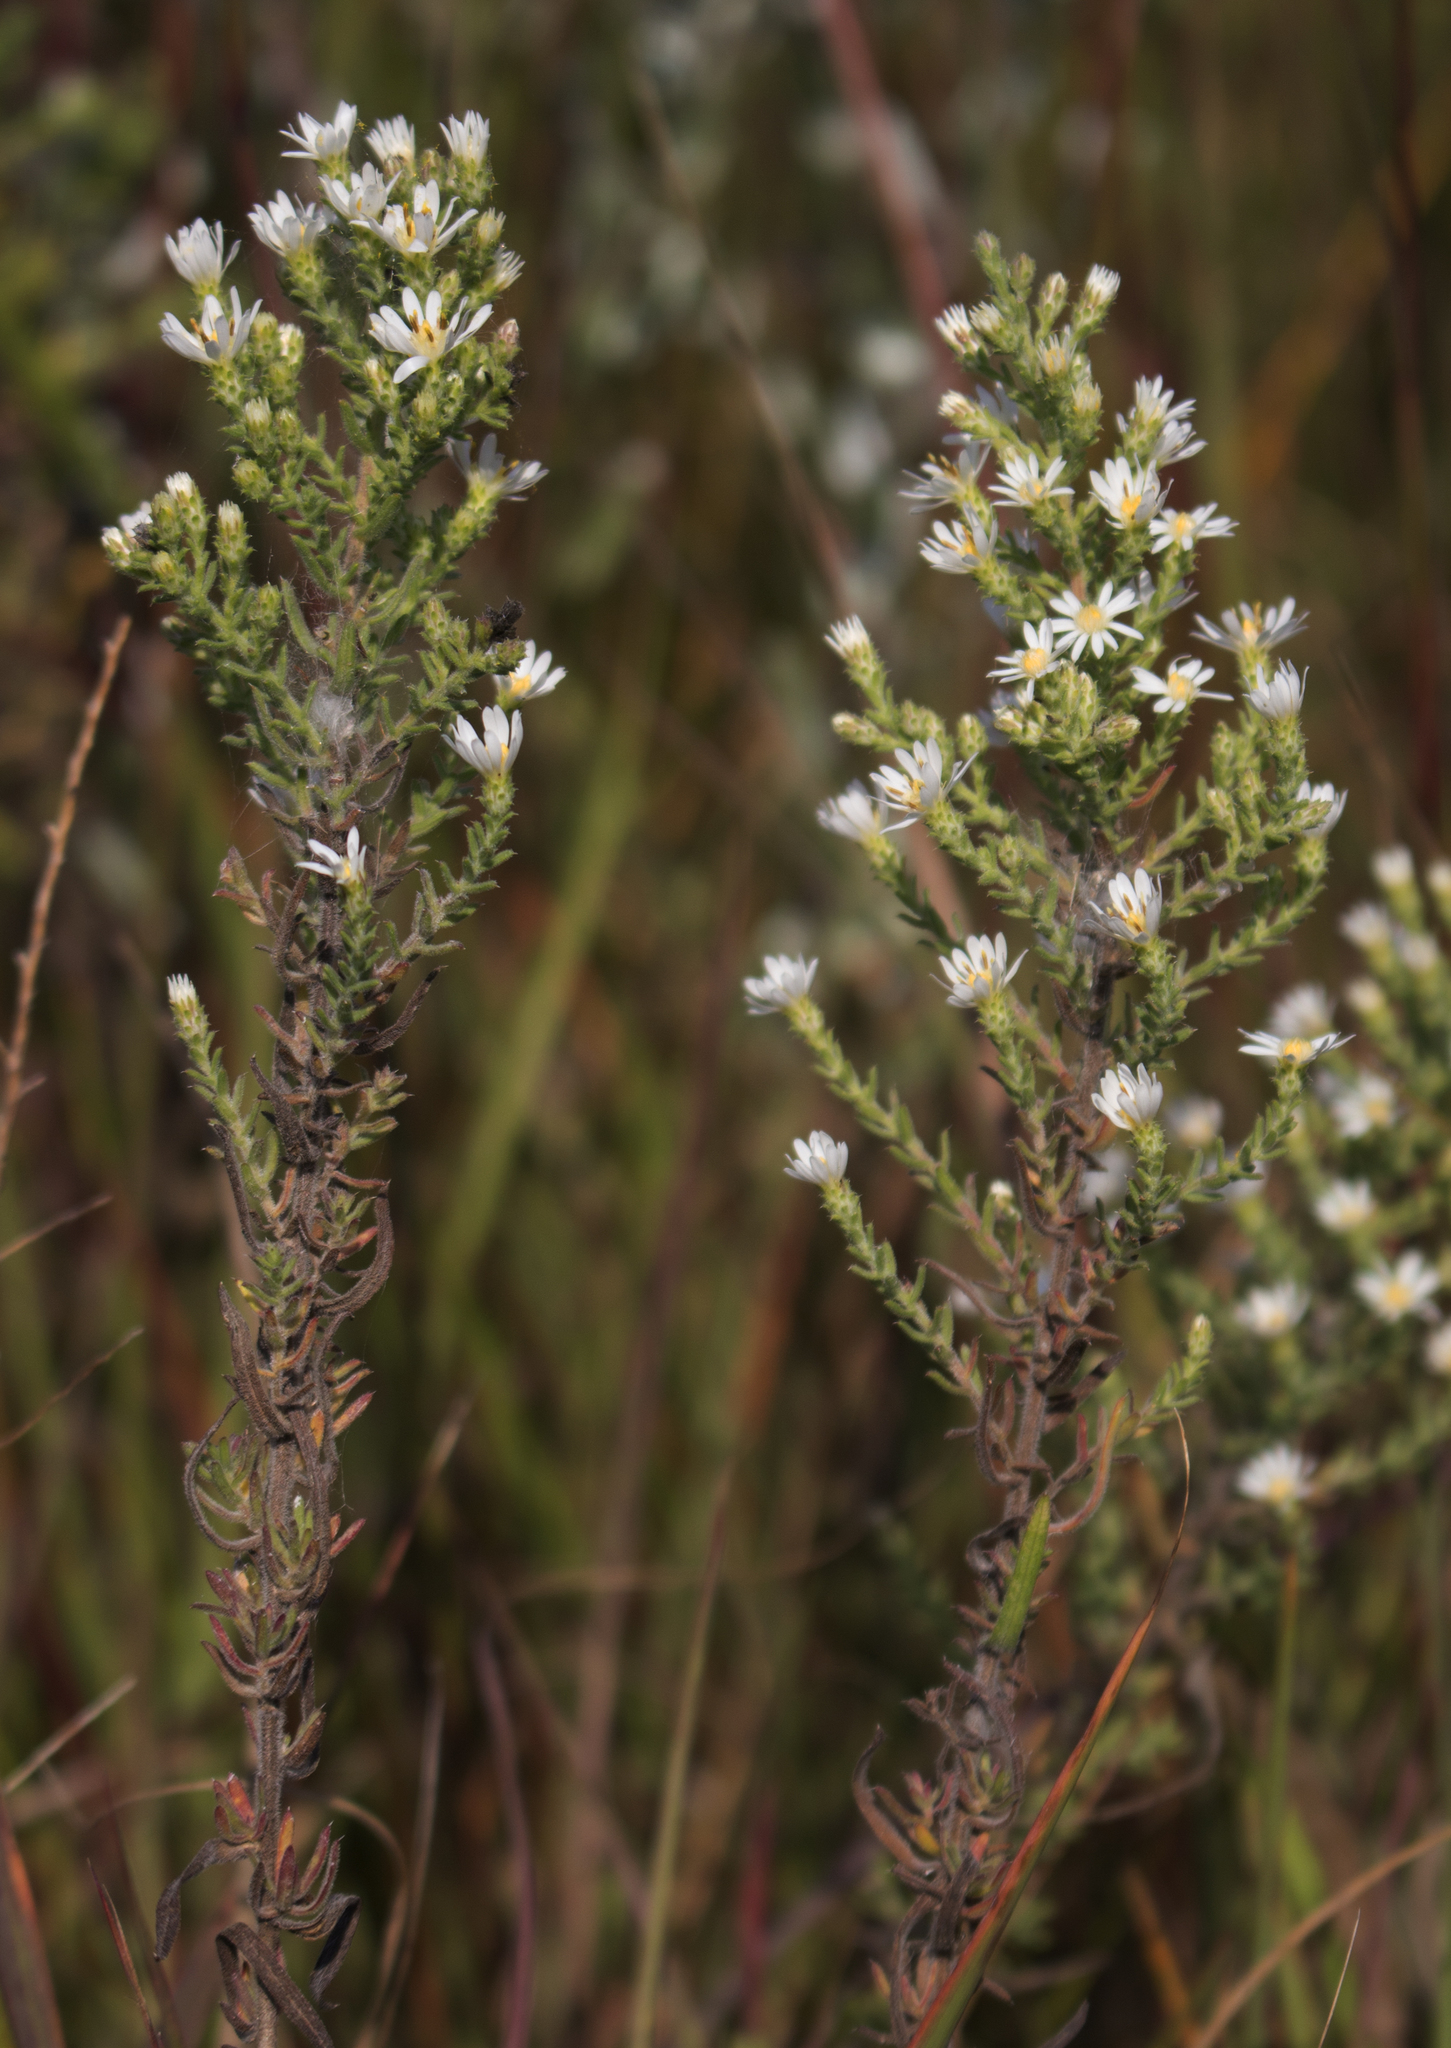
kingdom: Plantae
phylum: Tracheophyta
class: Magnoliopsida
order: Asterales
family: Asteraceae
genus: Symphyotrichum
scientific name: Symphyotrichum ericoides
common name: Heath aster
